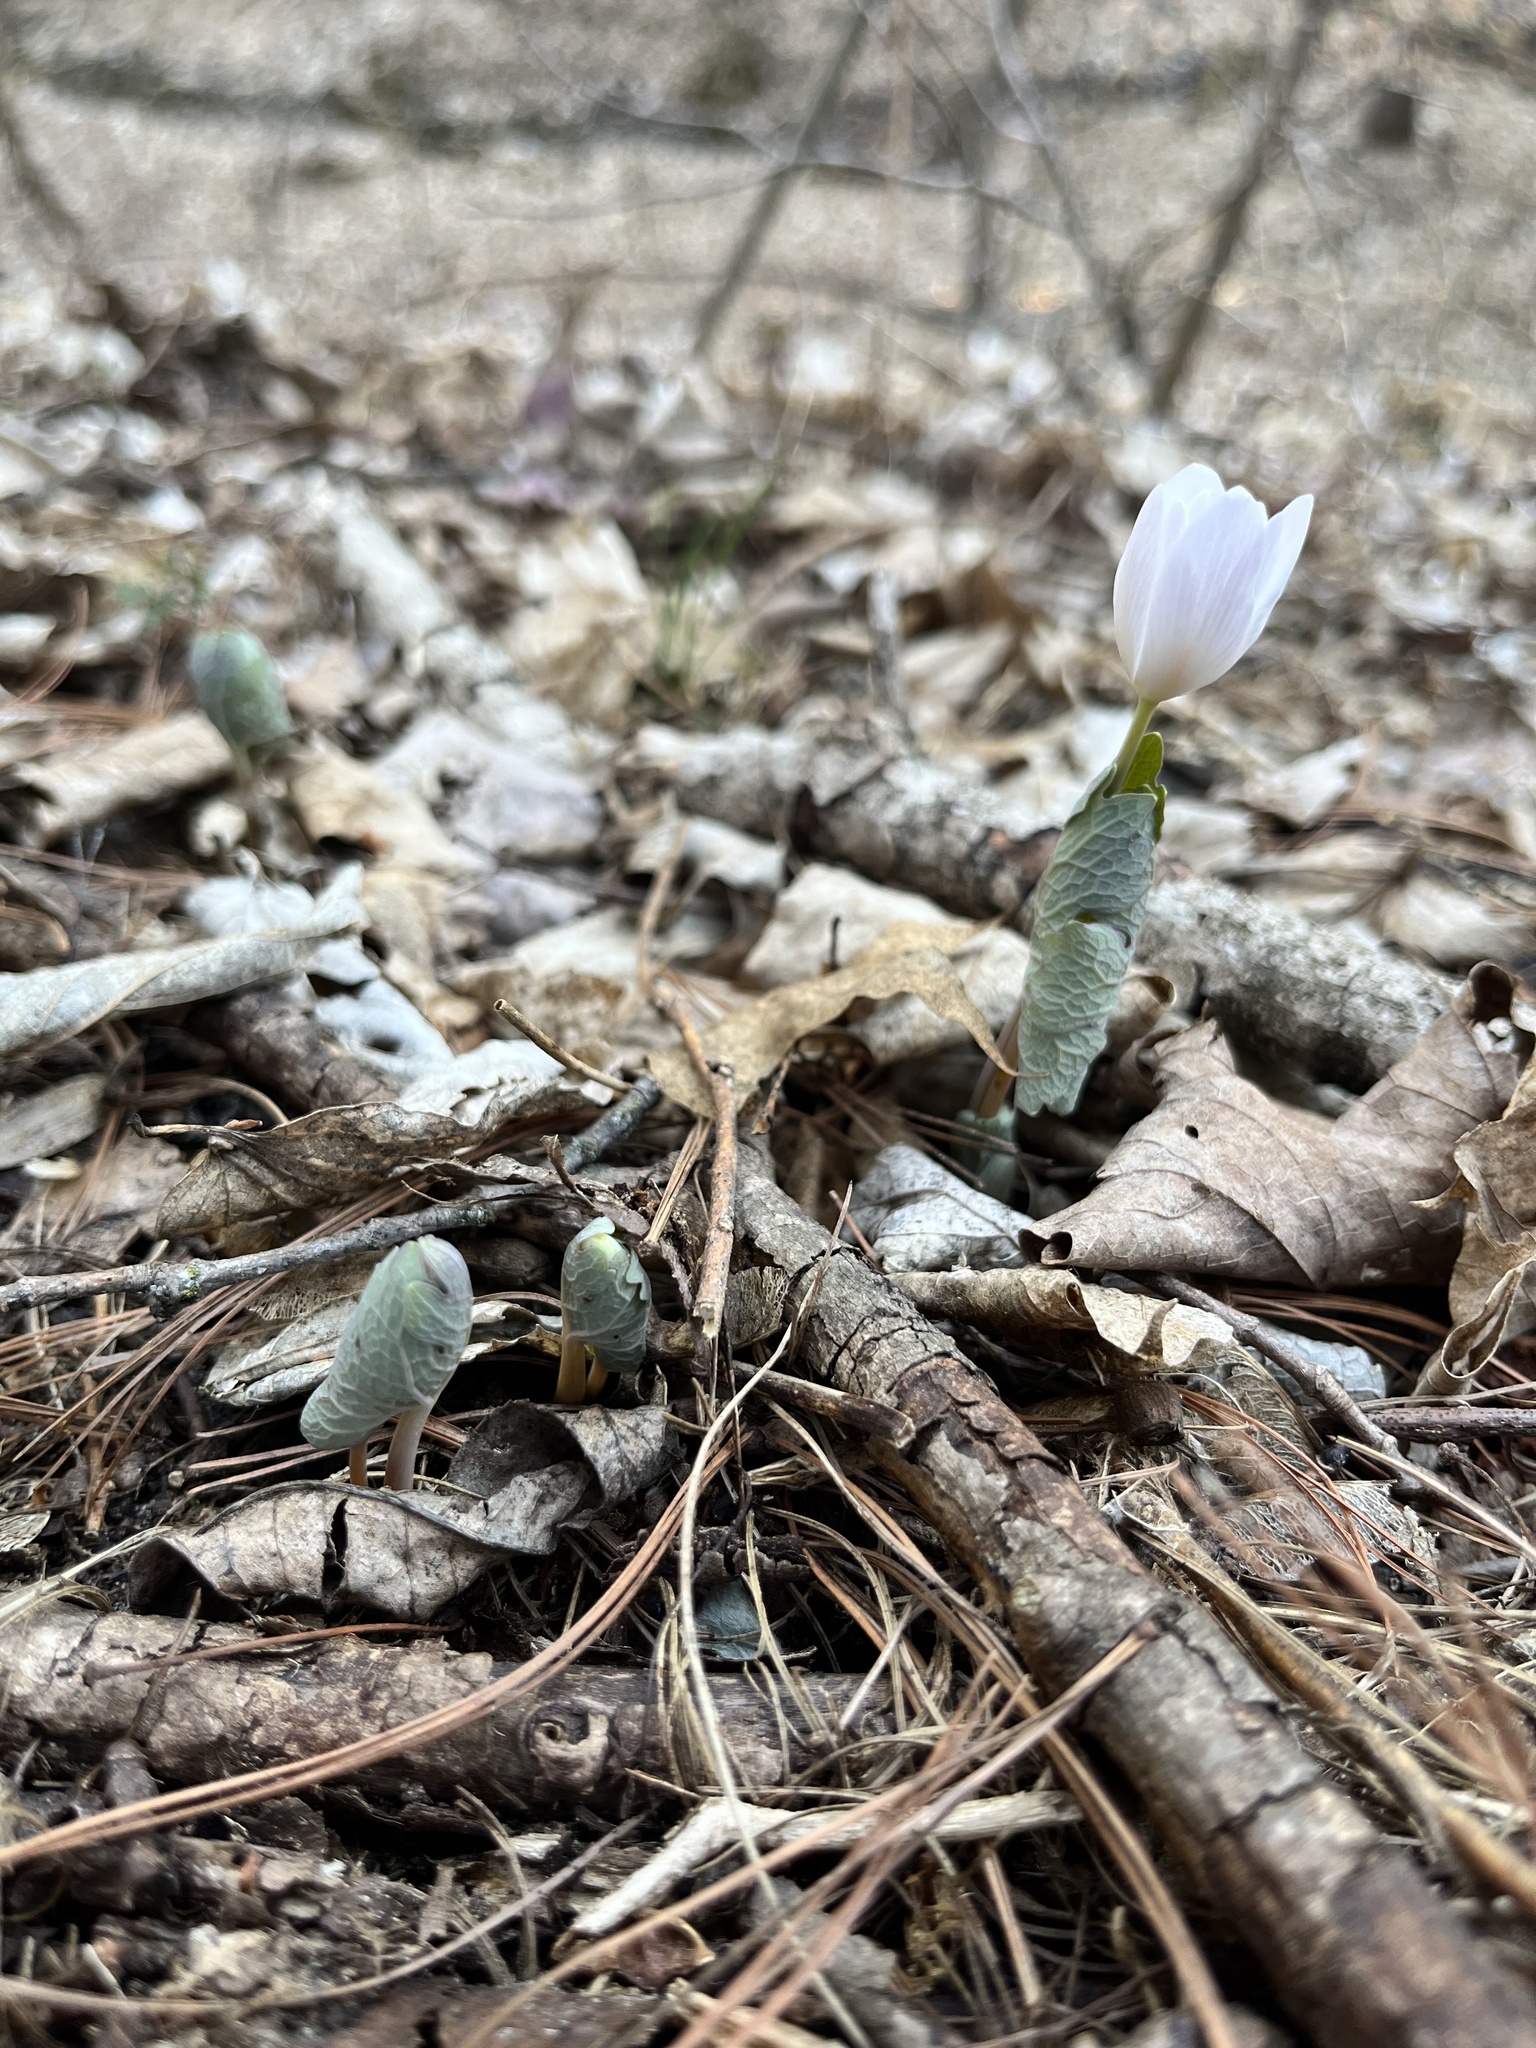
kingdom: Plantae
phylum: Tracheophyta
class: Magnoliopsida
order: Ranunculales
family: Papaveraceae
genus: Sanguinaria
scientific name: Sanguinaria canadensis
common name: Bloodroot
